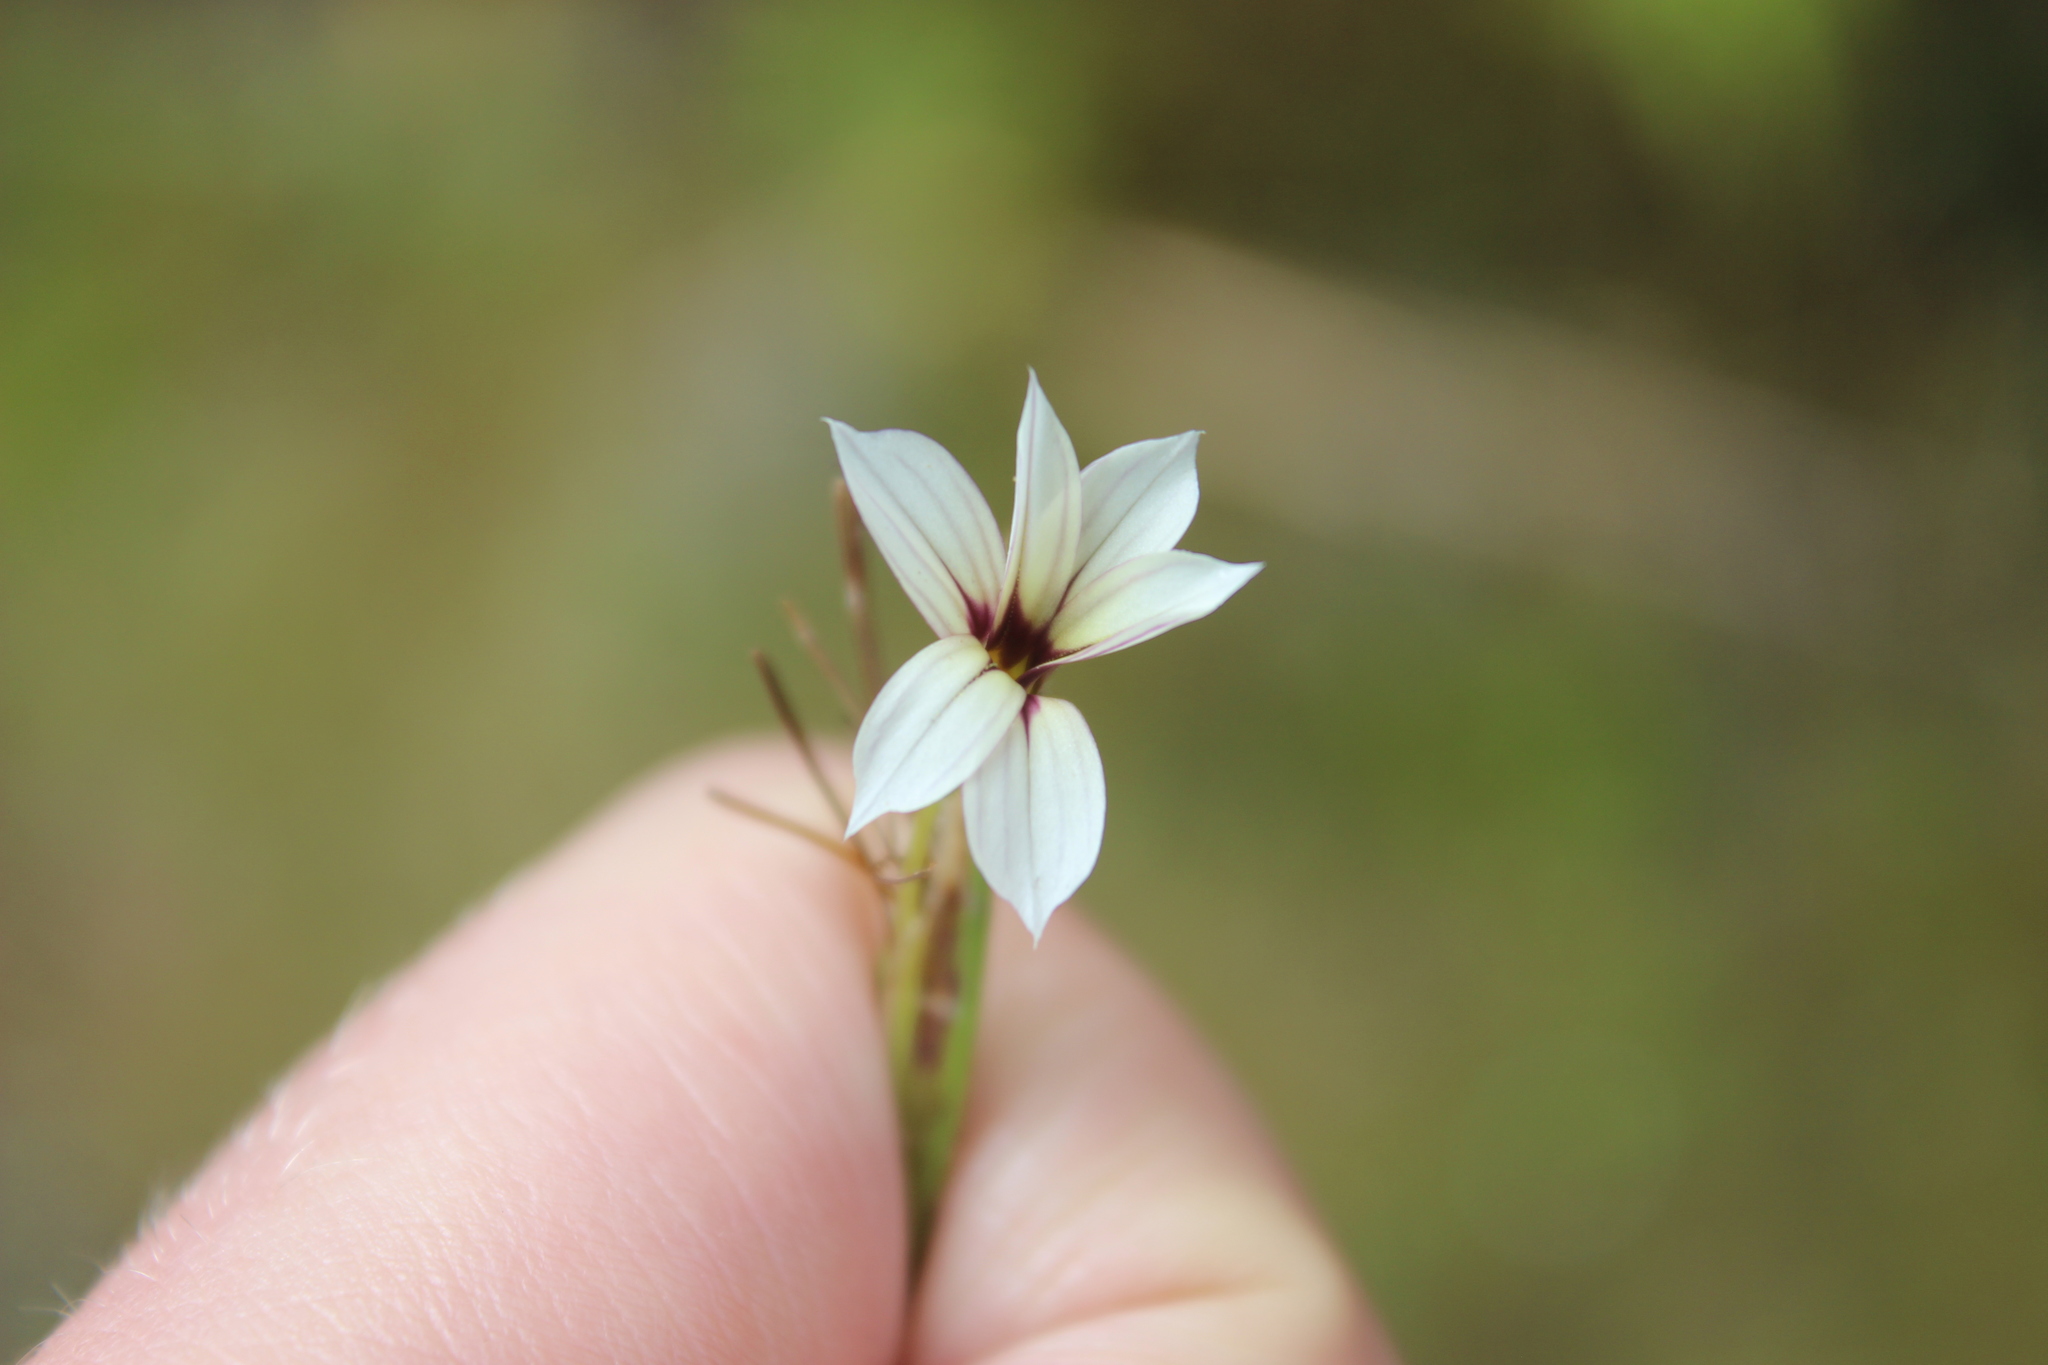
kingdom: Plantae
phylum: Tracheophyta
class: Liliopsida
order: Asparagales
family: Iridaceae
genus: Sisyrinchium
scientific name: Sisyrinchium micranthum
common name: Bermuda pigroot
